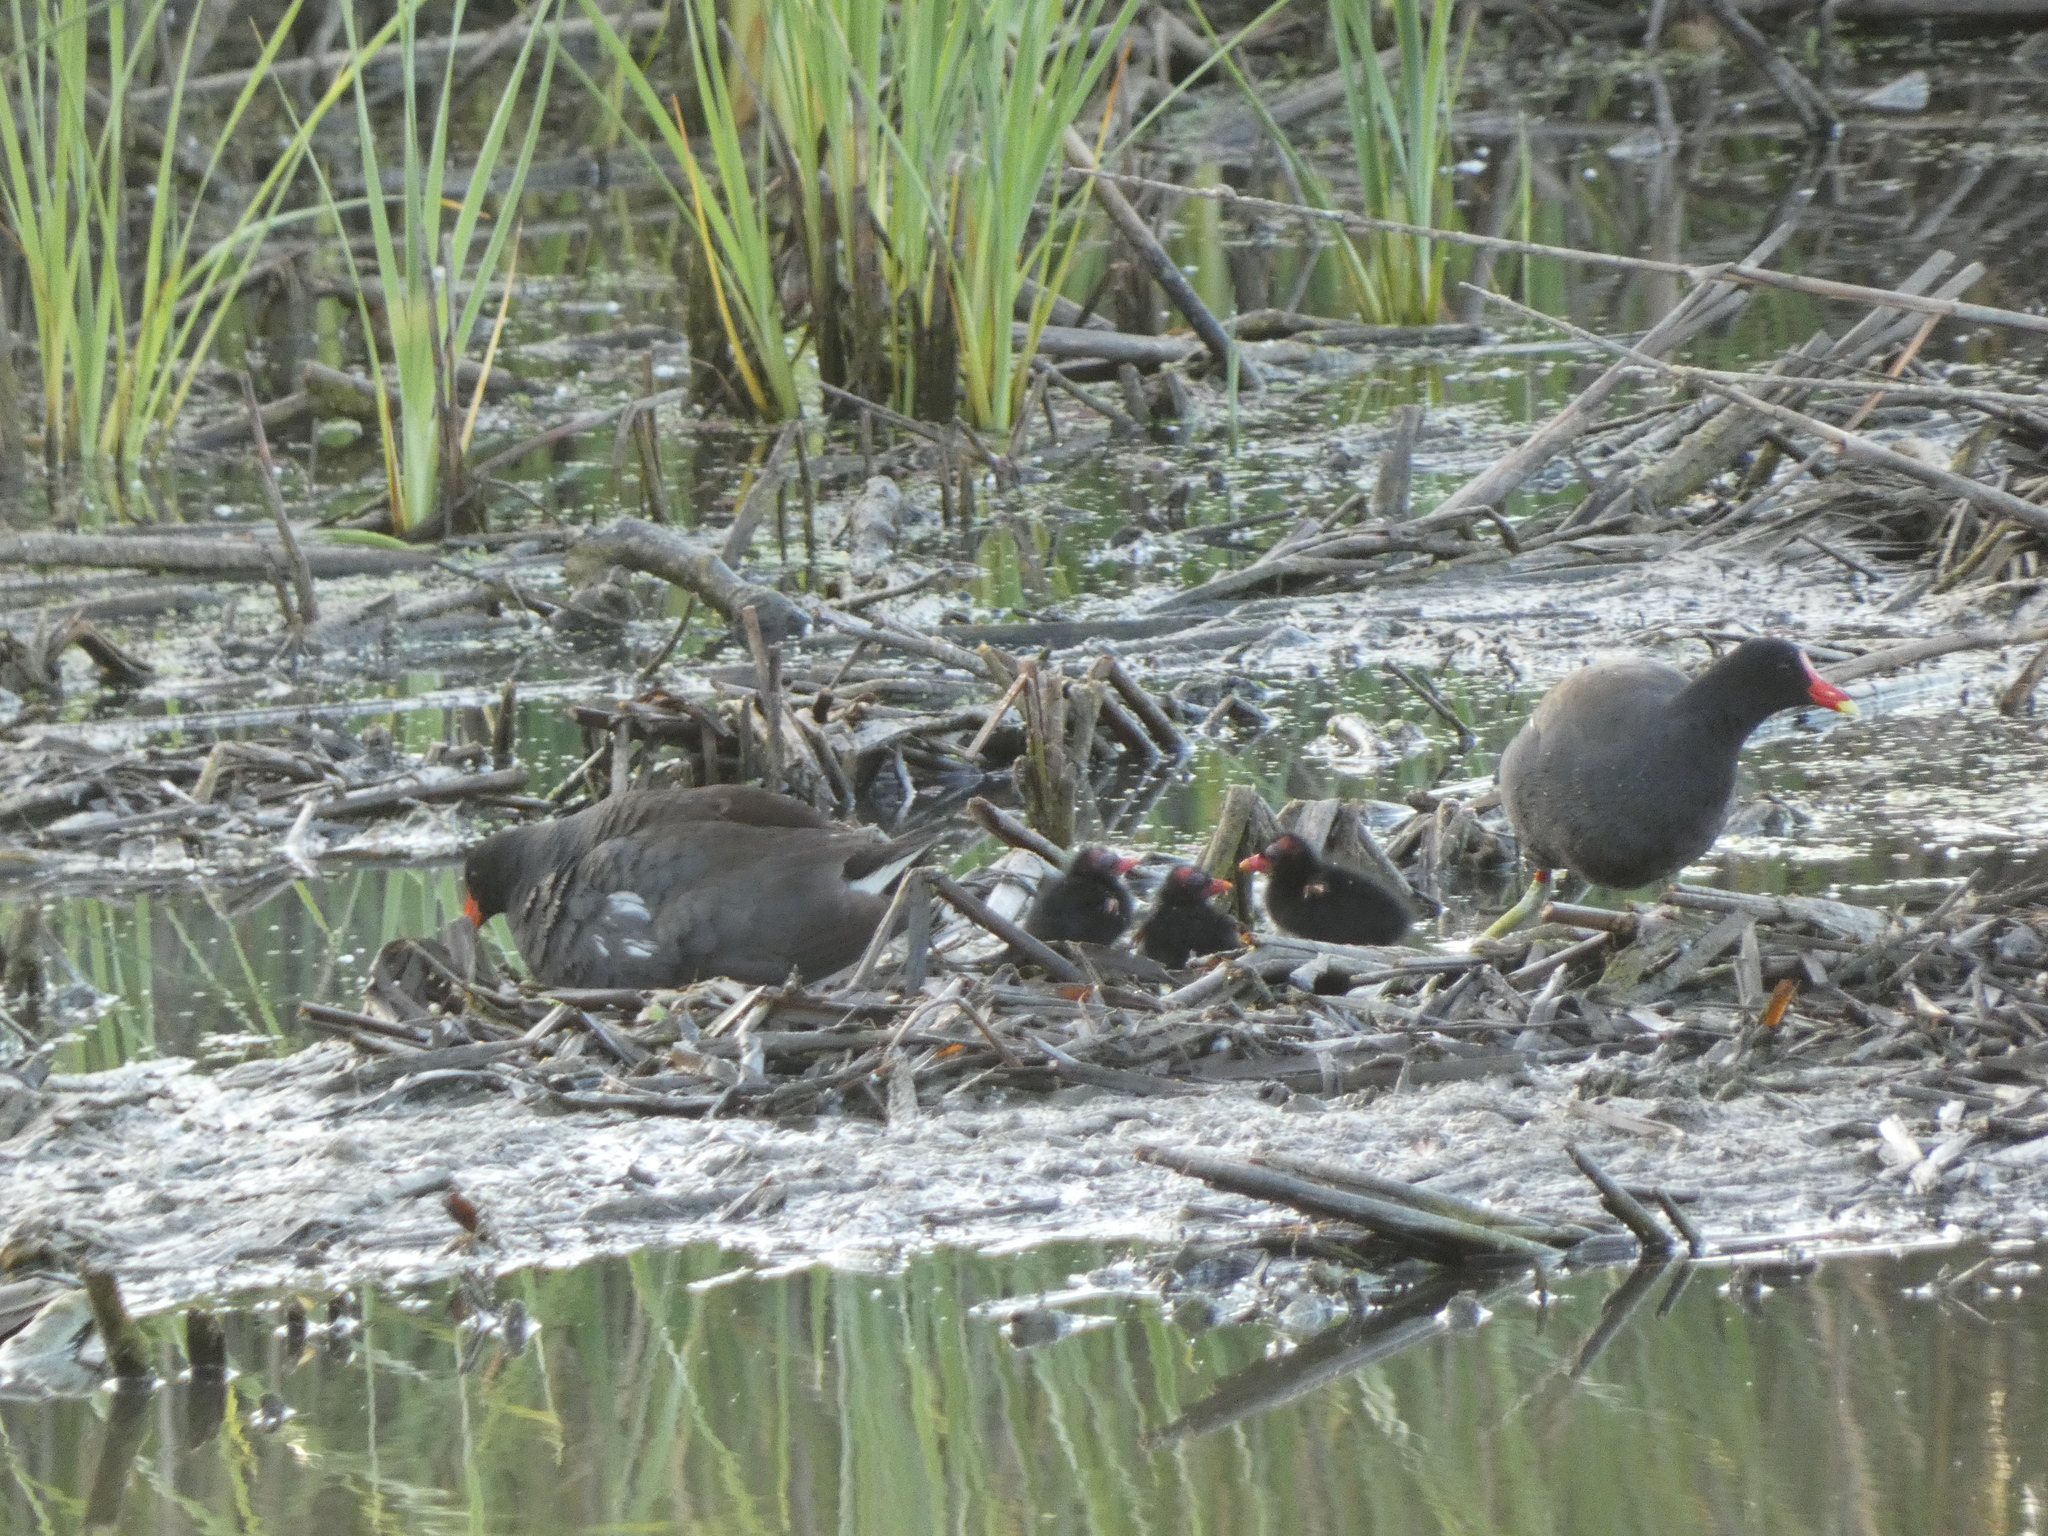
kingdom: Animalia
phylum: Chordata
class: Aves
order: Gruiformes
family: Rallidae
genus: Gallinula
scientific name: Gallinula chloropus
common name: Common moorhen
